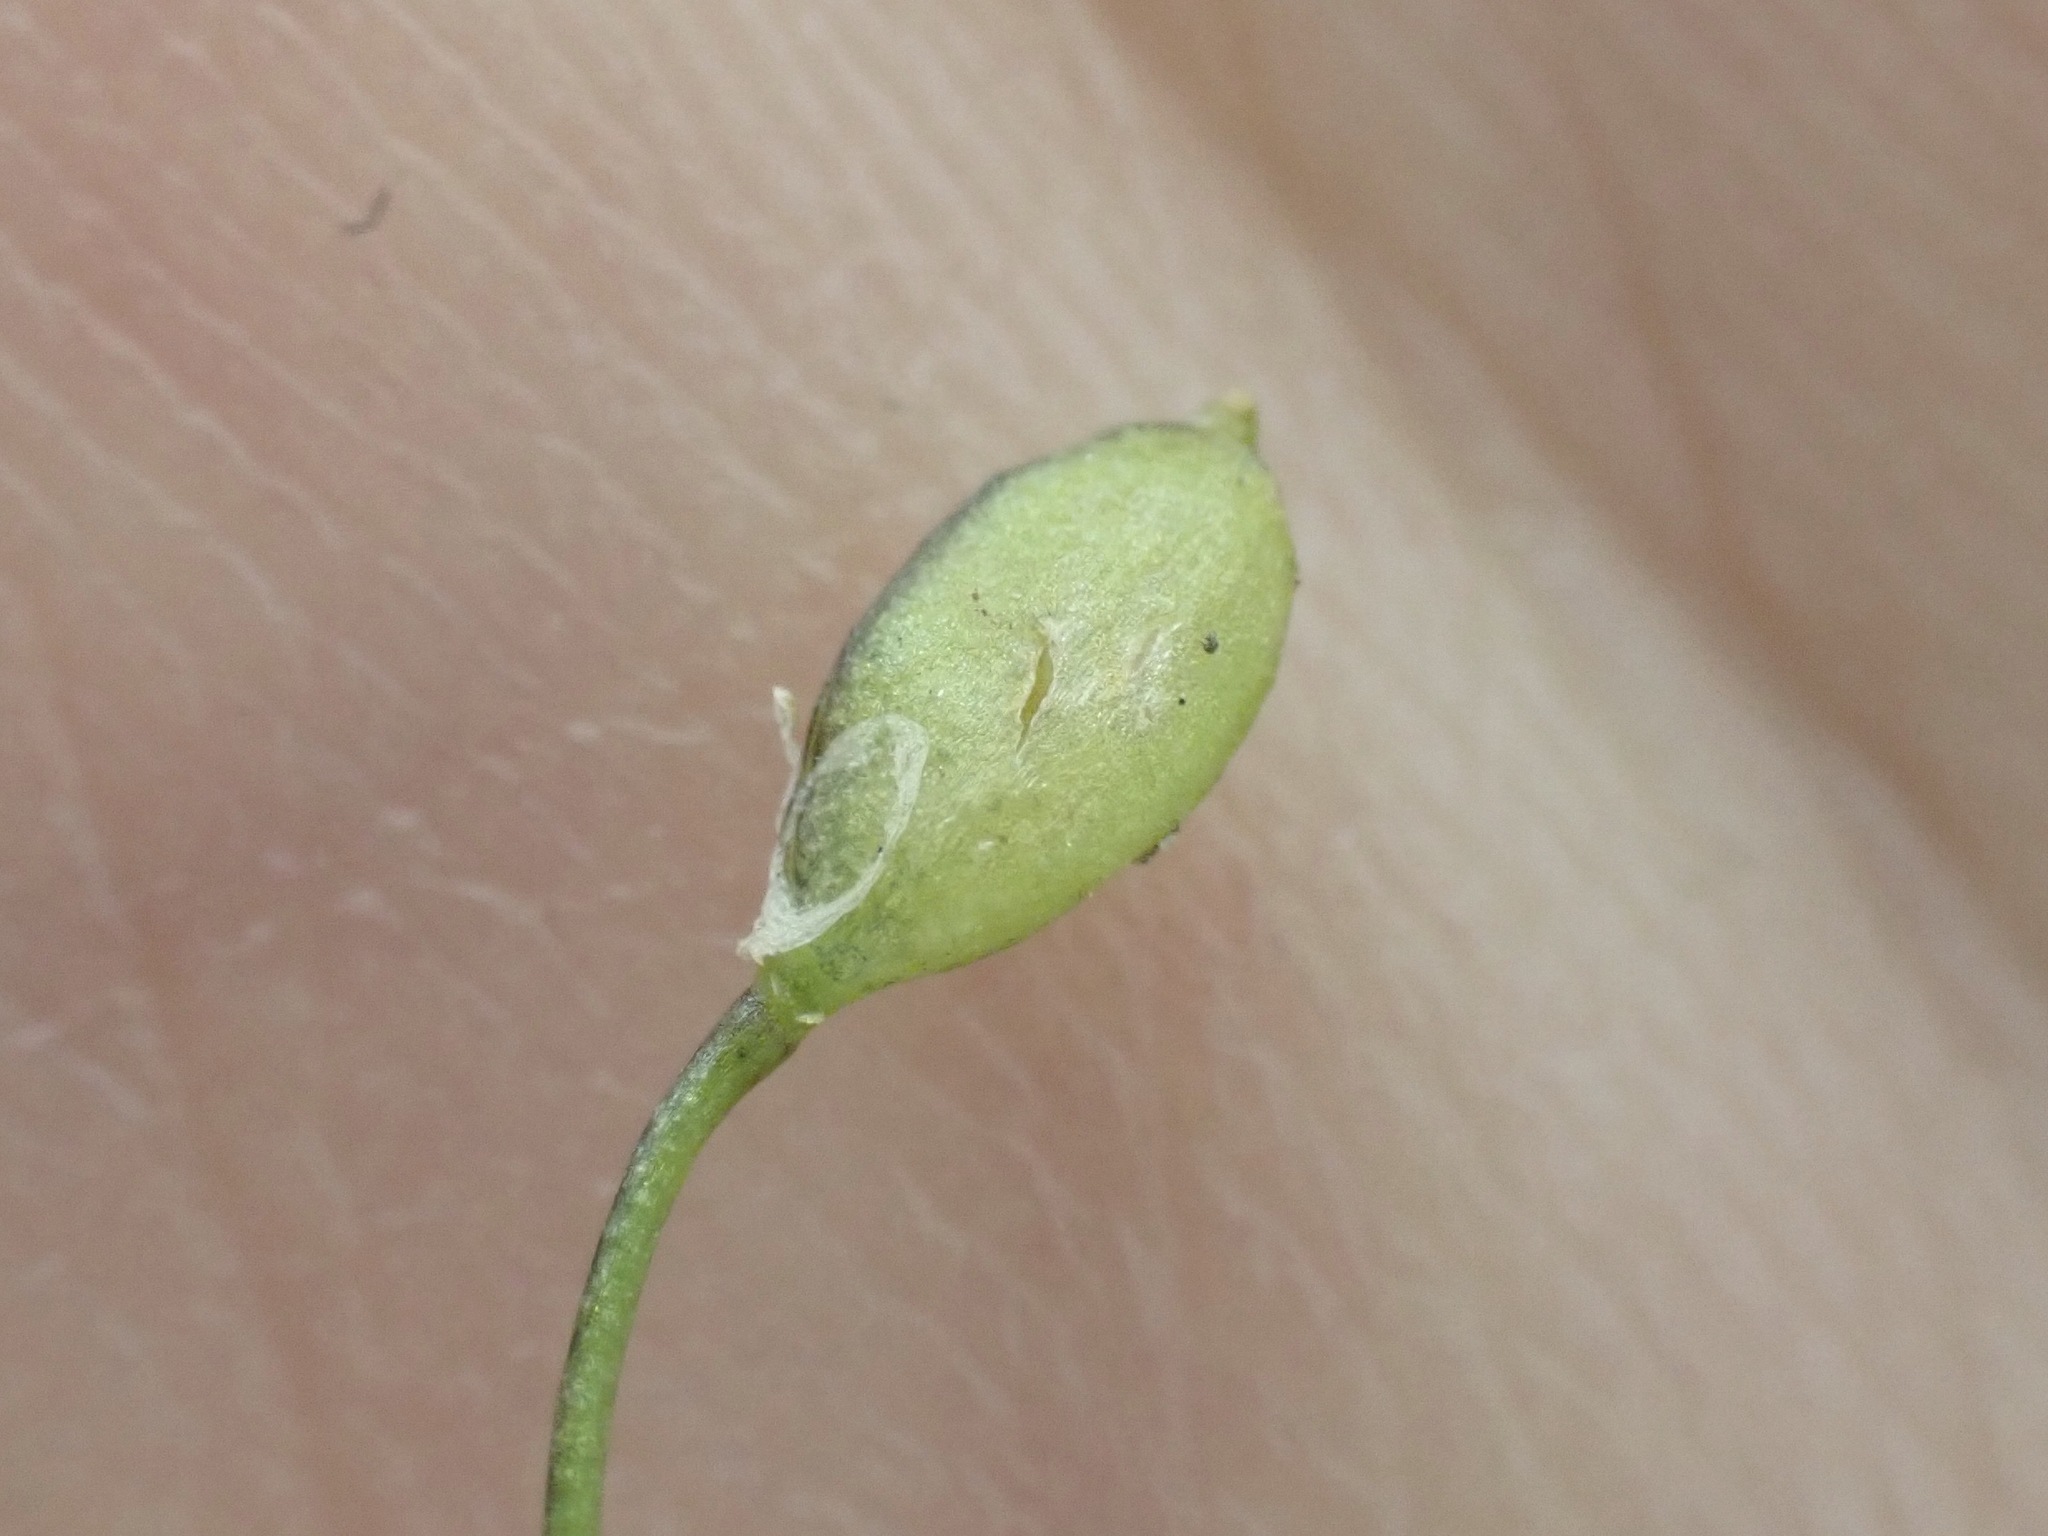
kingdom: Plantae
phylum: Tracheophyta
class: Magnoliopsida
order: Brassicales
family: Brassicaceae
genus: Draba
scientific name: Draba verna
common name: Spring draba
